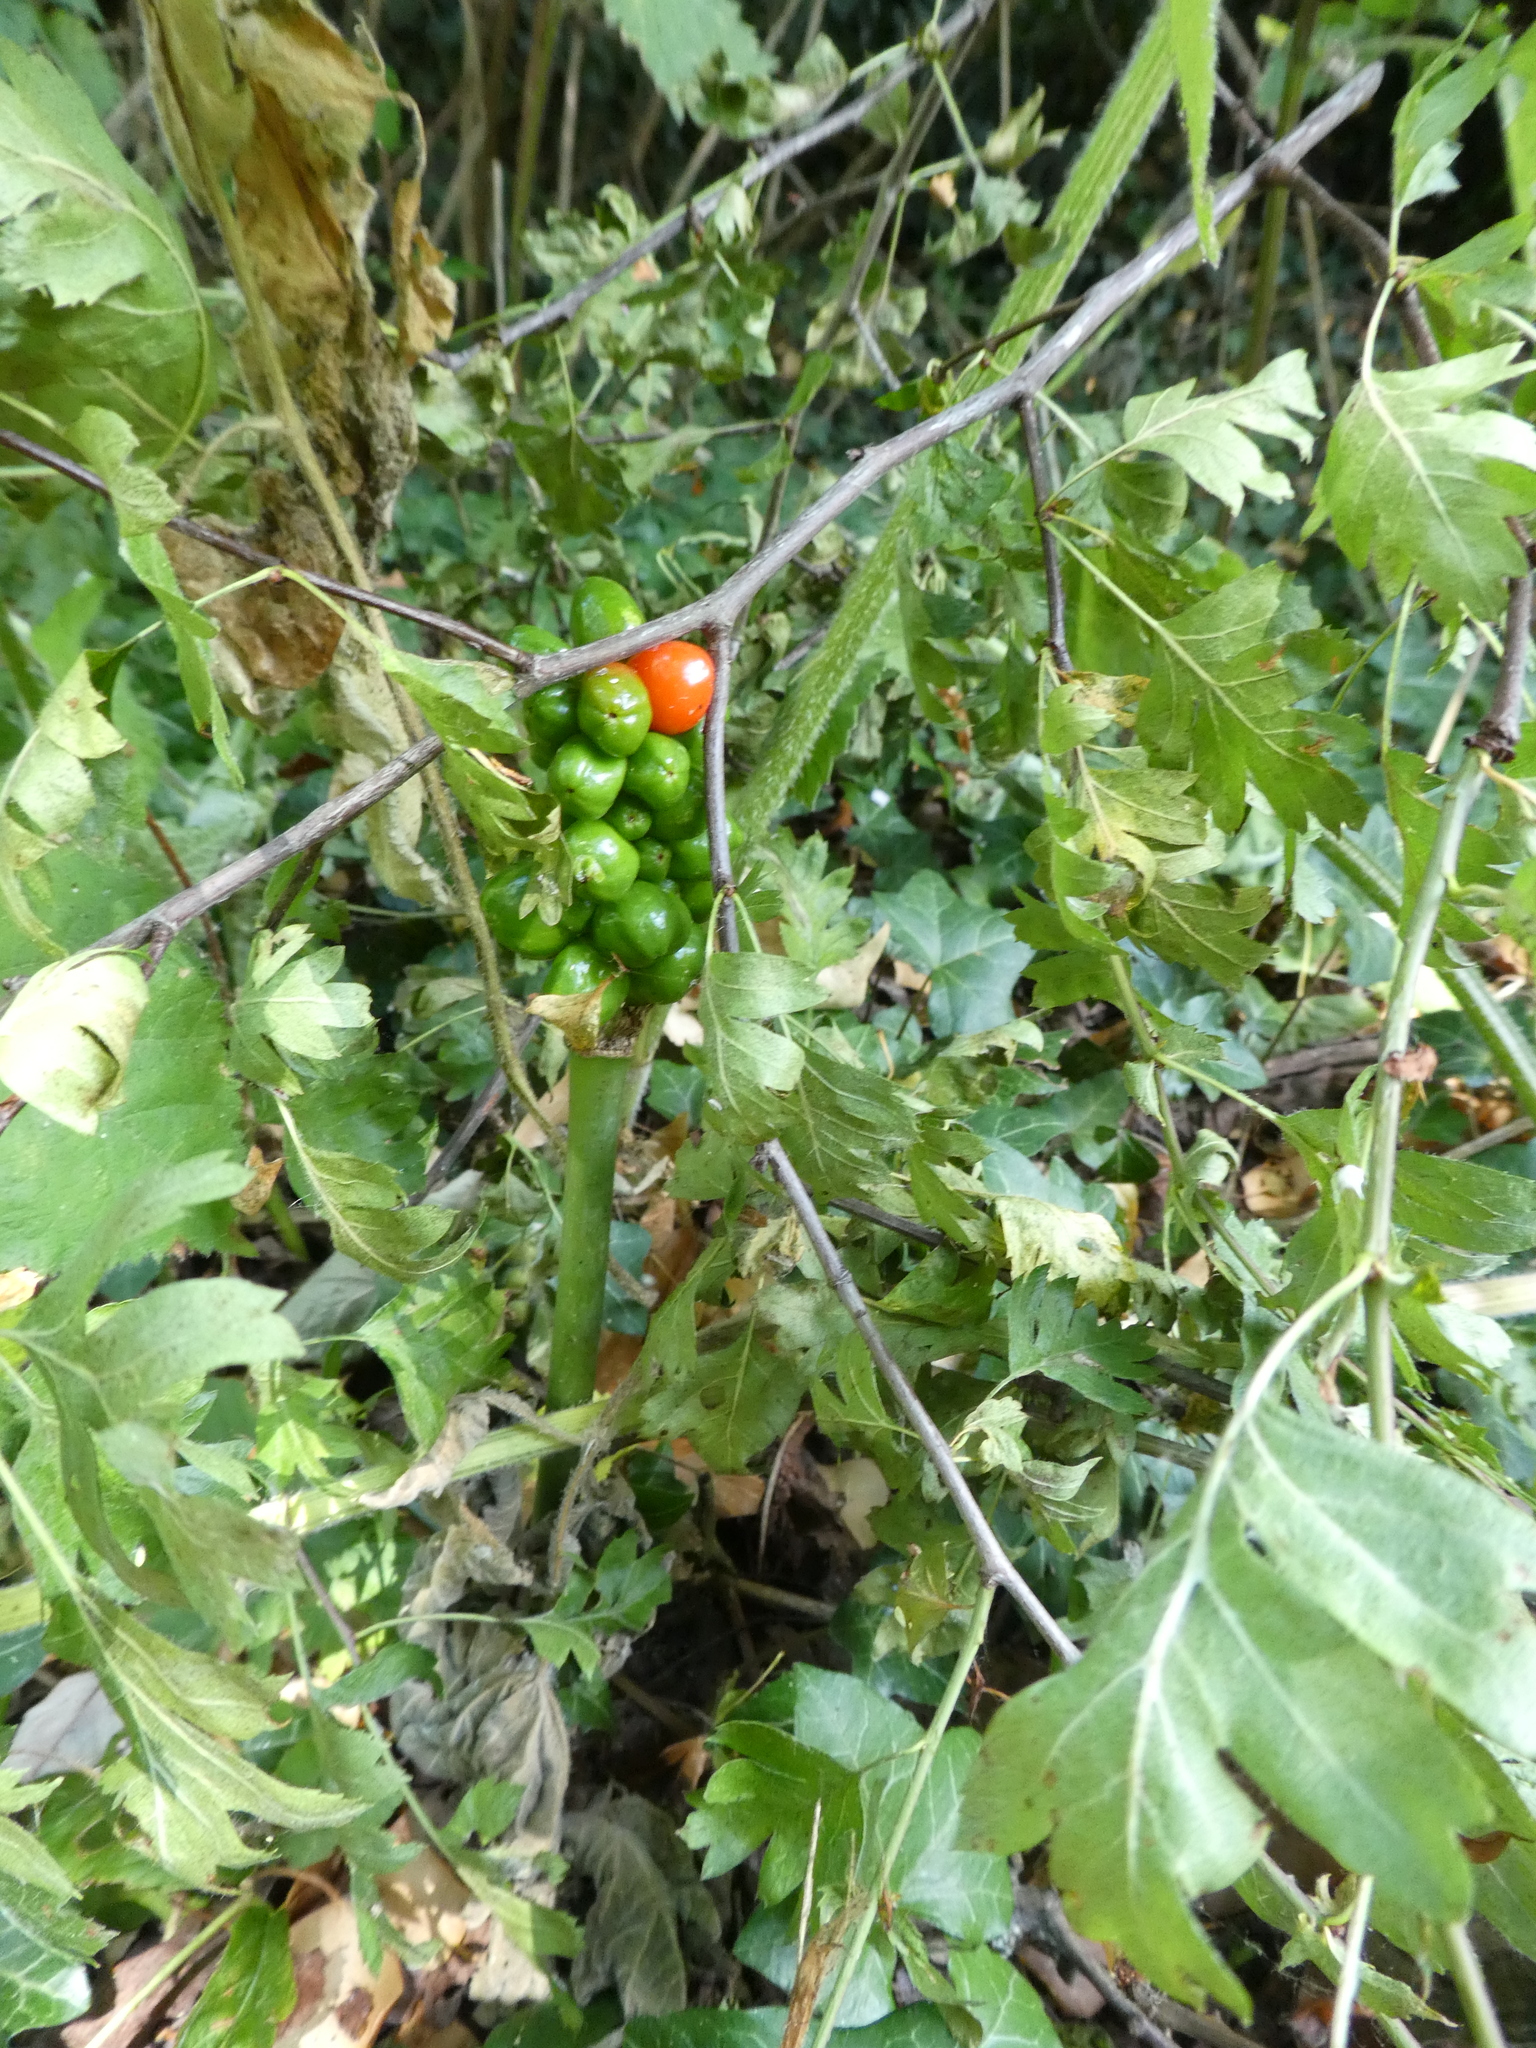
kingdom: Plantae
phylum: Tracheophyta
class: Liliopsida
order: Alismatales
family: Araceae
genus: Arum
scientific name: Arum maculatum
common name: Lords-and-ladies
